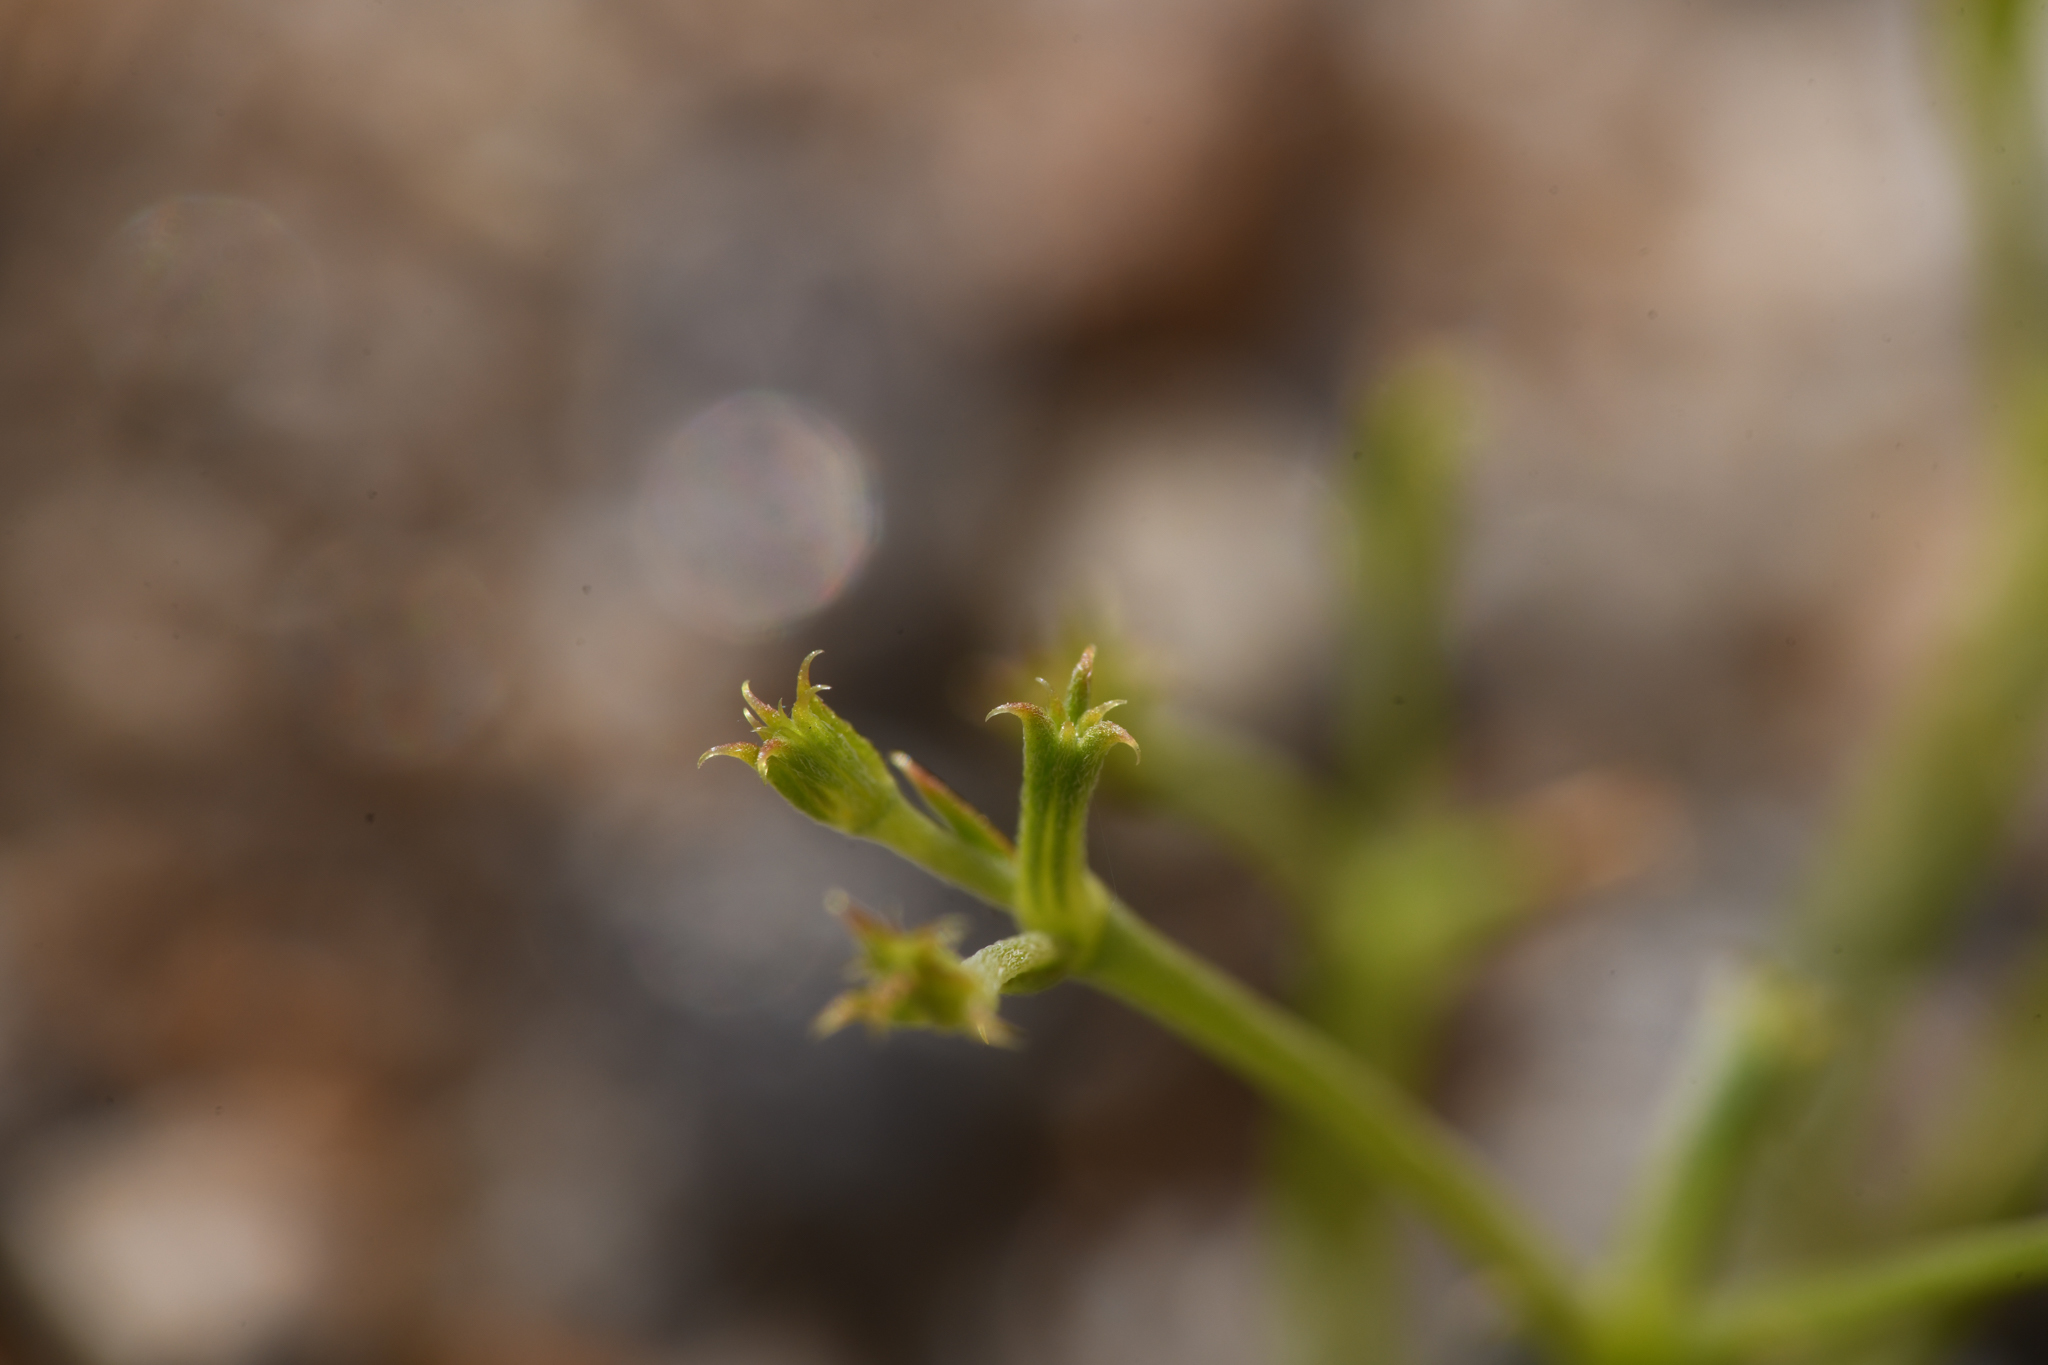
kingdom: Plantae
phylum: Tracheophyta
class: Magnoliopsida
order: Caryophyllales
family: Polygonaceae
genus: Chorizanthe
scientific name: Chorizanthe brevicornu
